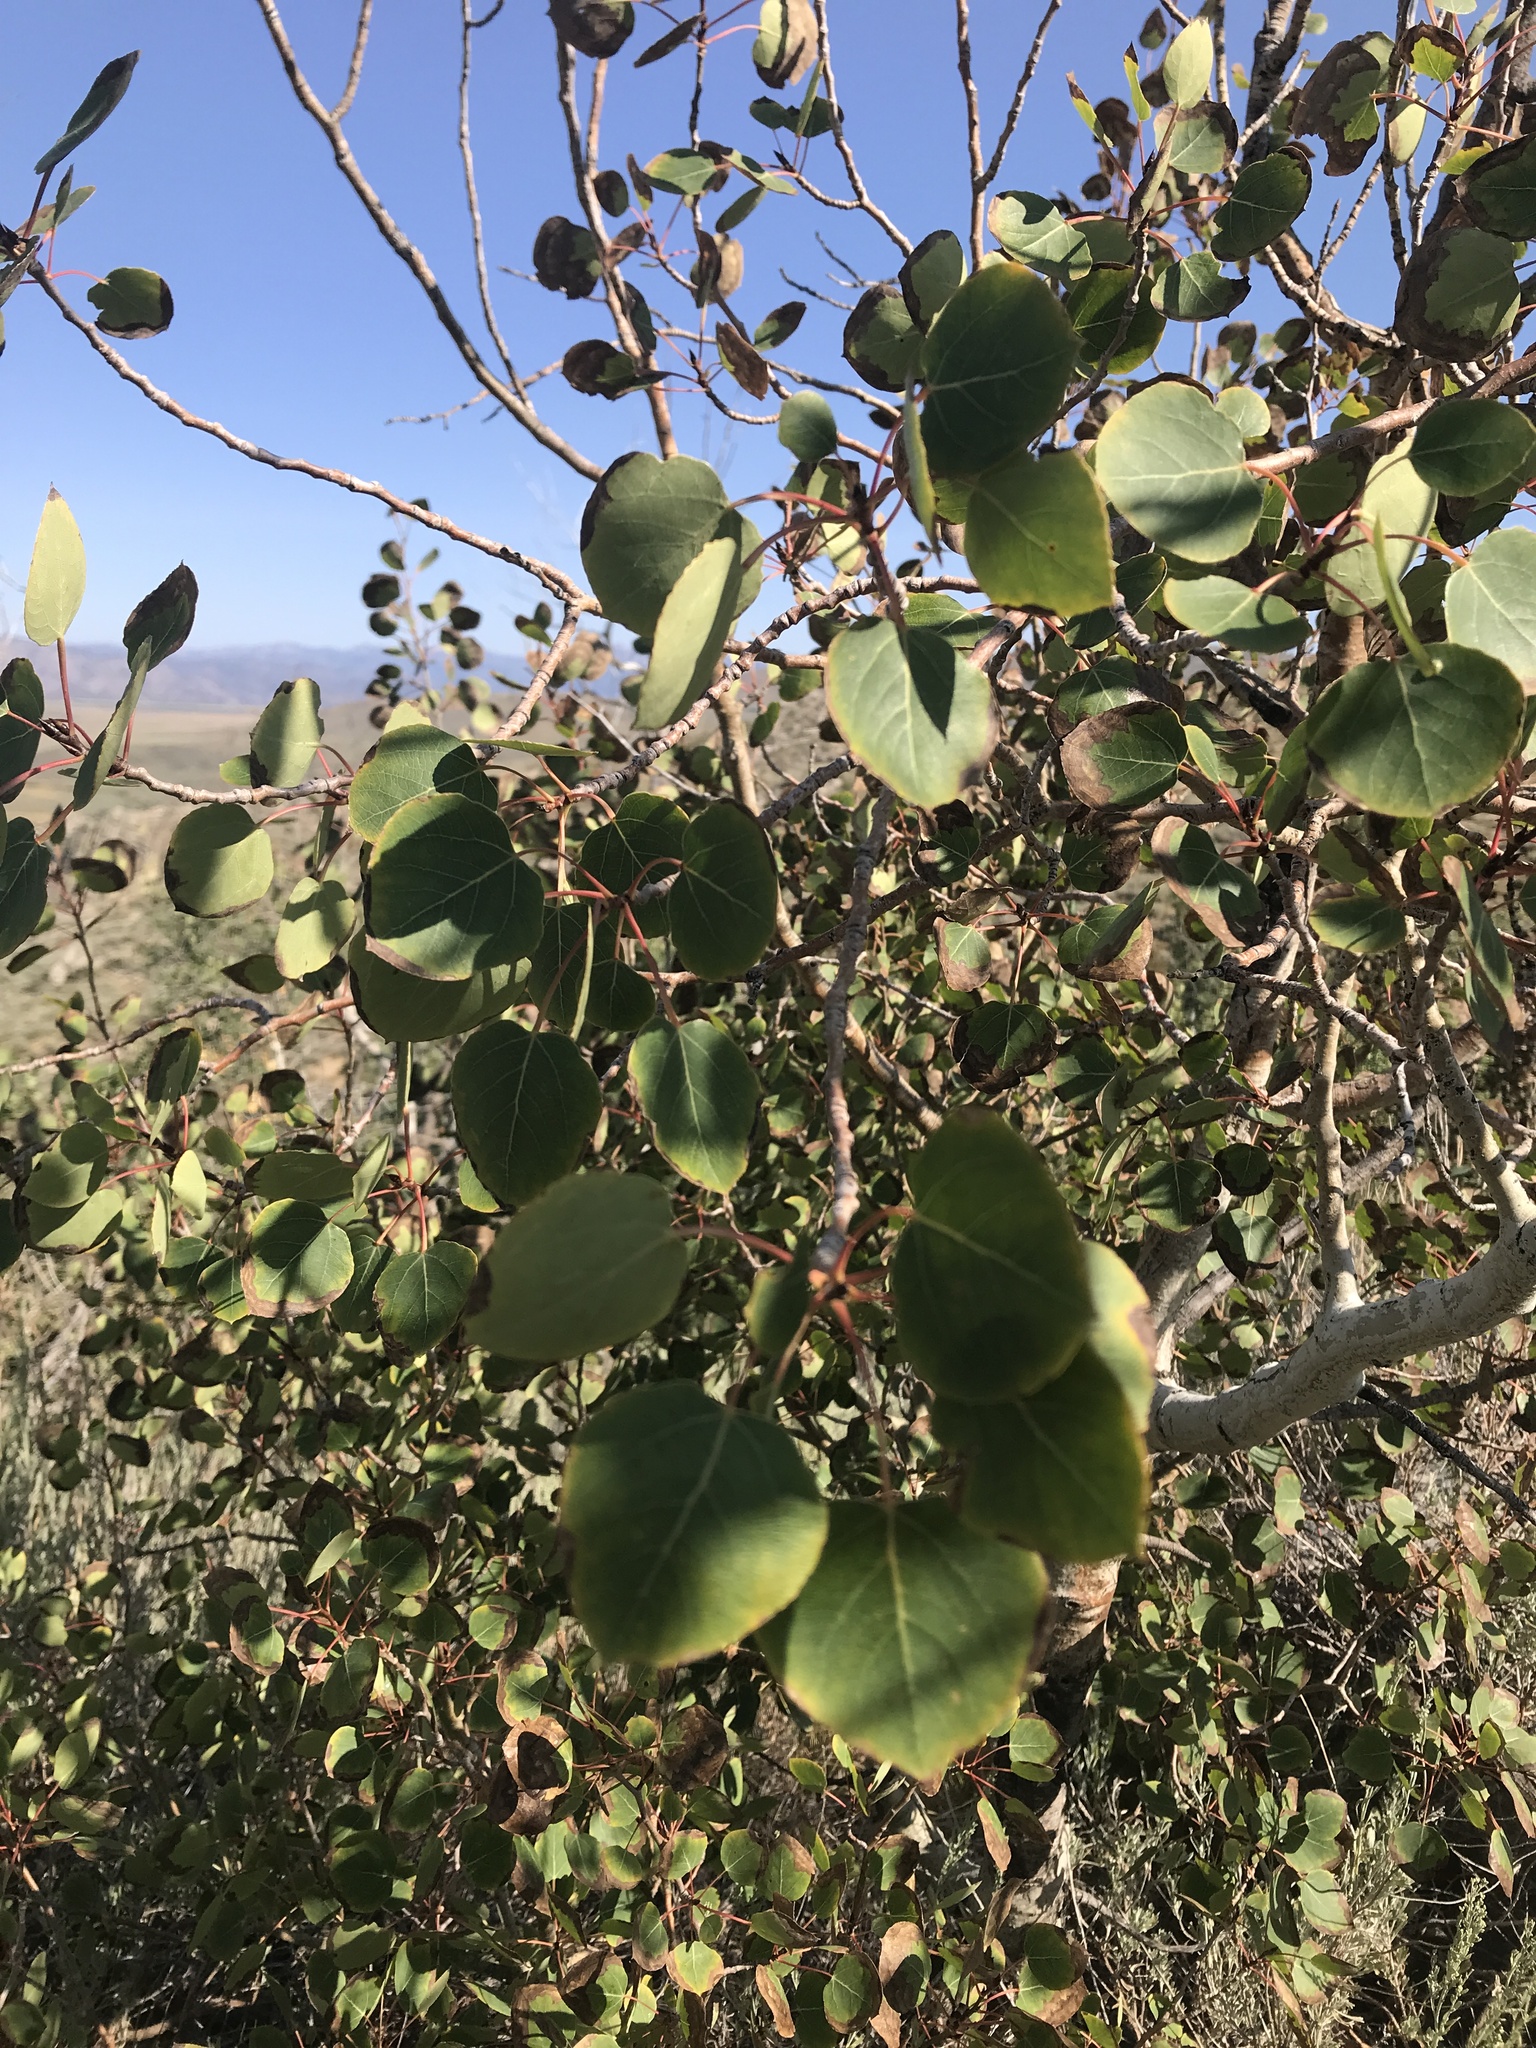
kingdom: Plantae
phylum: Tracheophyta
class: Magnoliopsida
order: Malpighiales
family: Salicaceae
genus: Populus
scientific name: Populus tremuloides
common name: Quaking aspen
